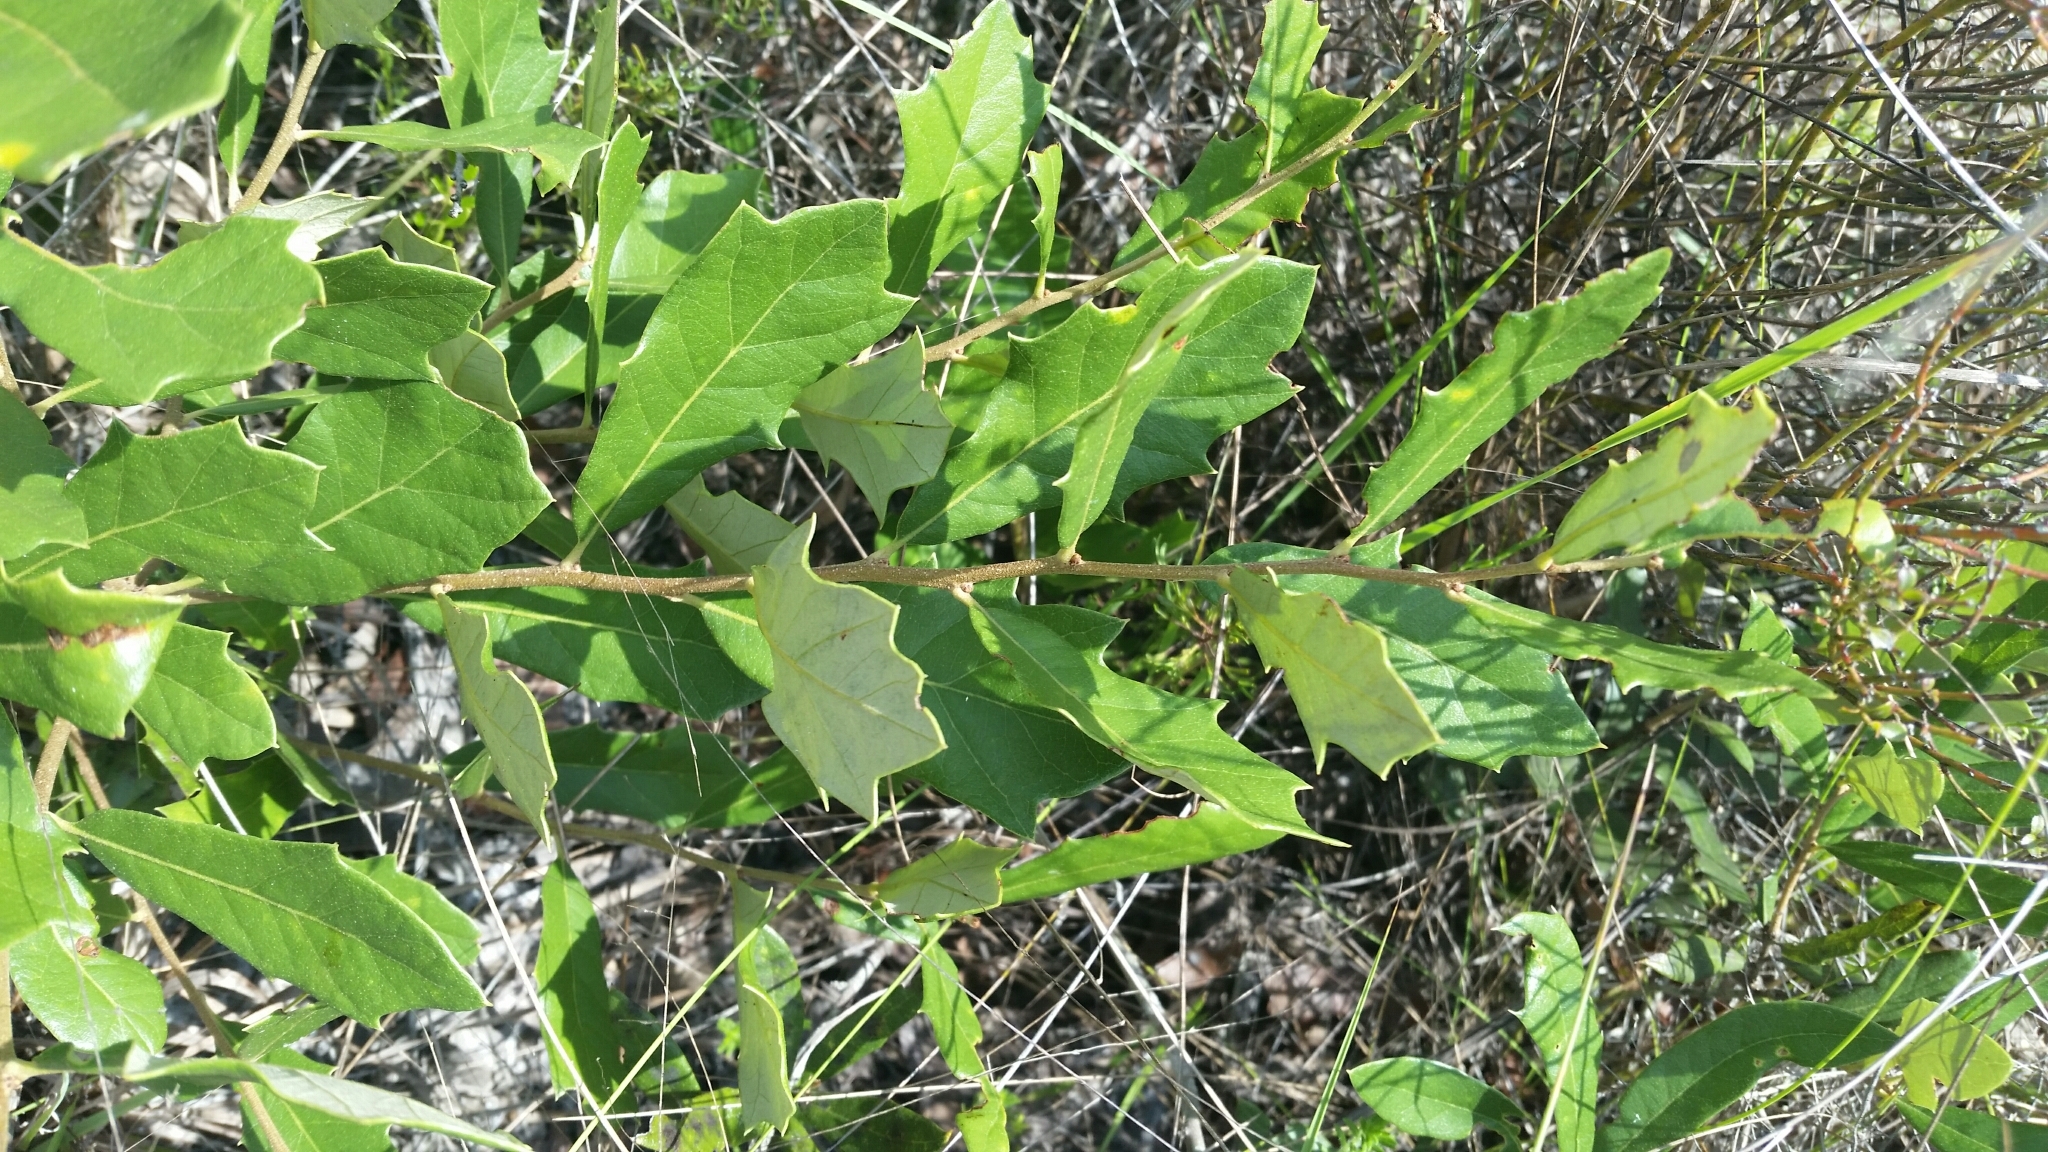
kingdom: Plantae
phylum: Tracheophyta
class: Magnoliopsida
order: Fagales
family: Fagaceae
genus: Quercus
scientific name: Quercus minima
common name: Dwarf live oak
